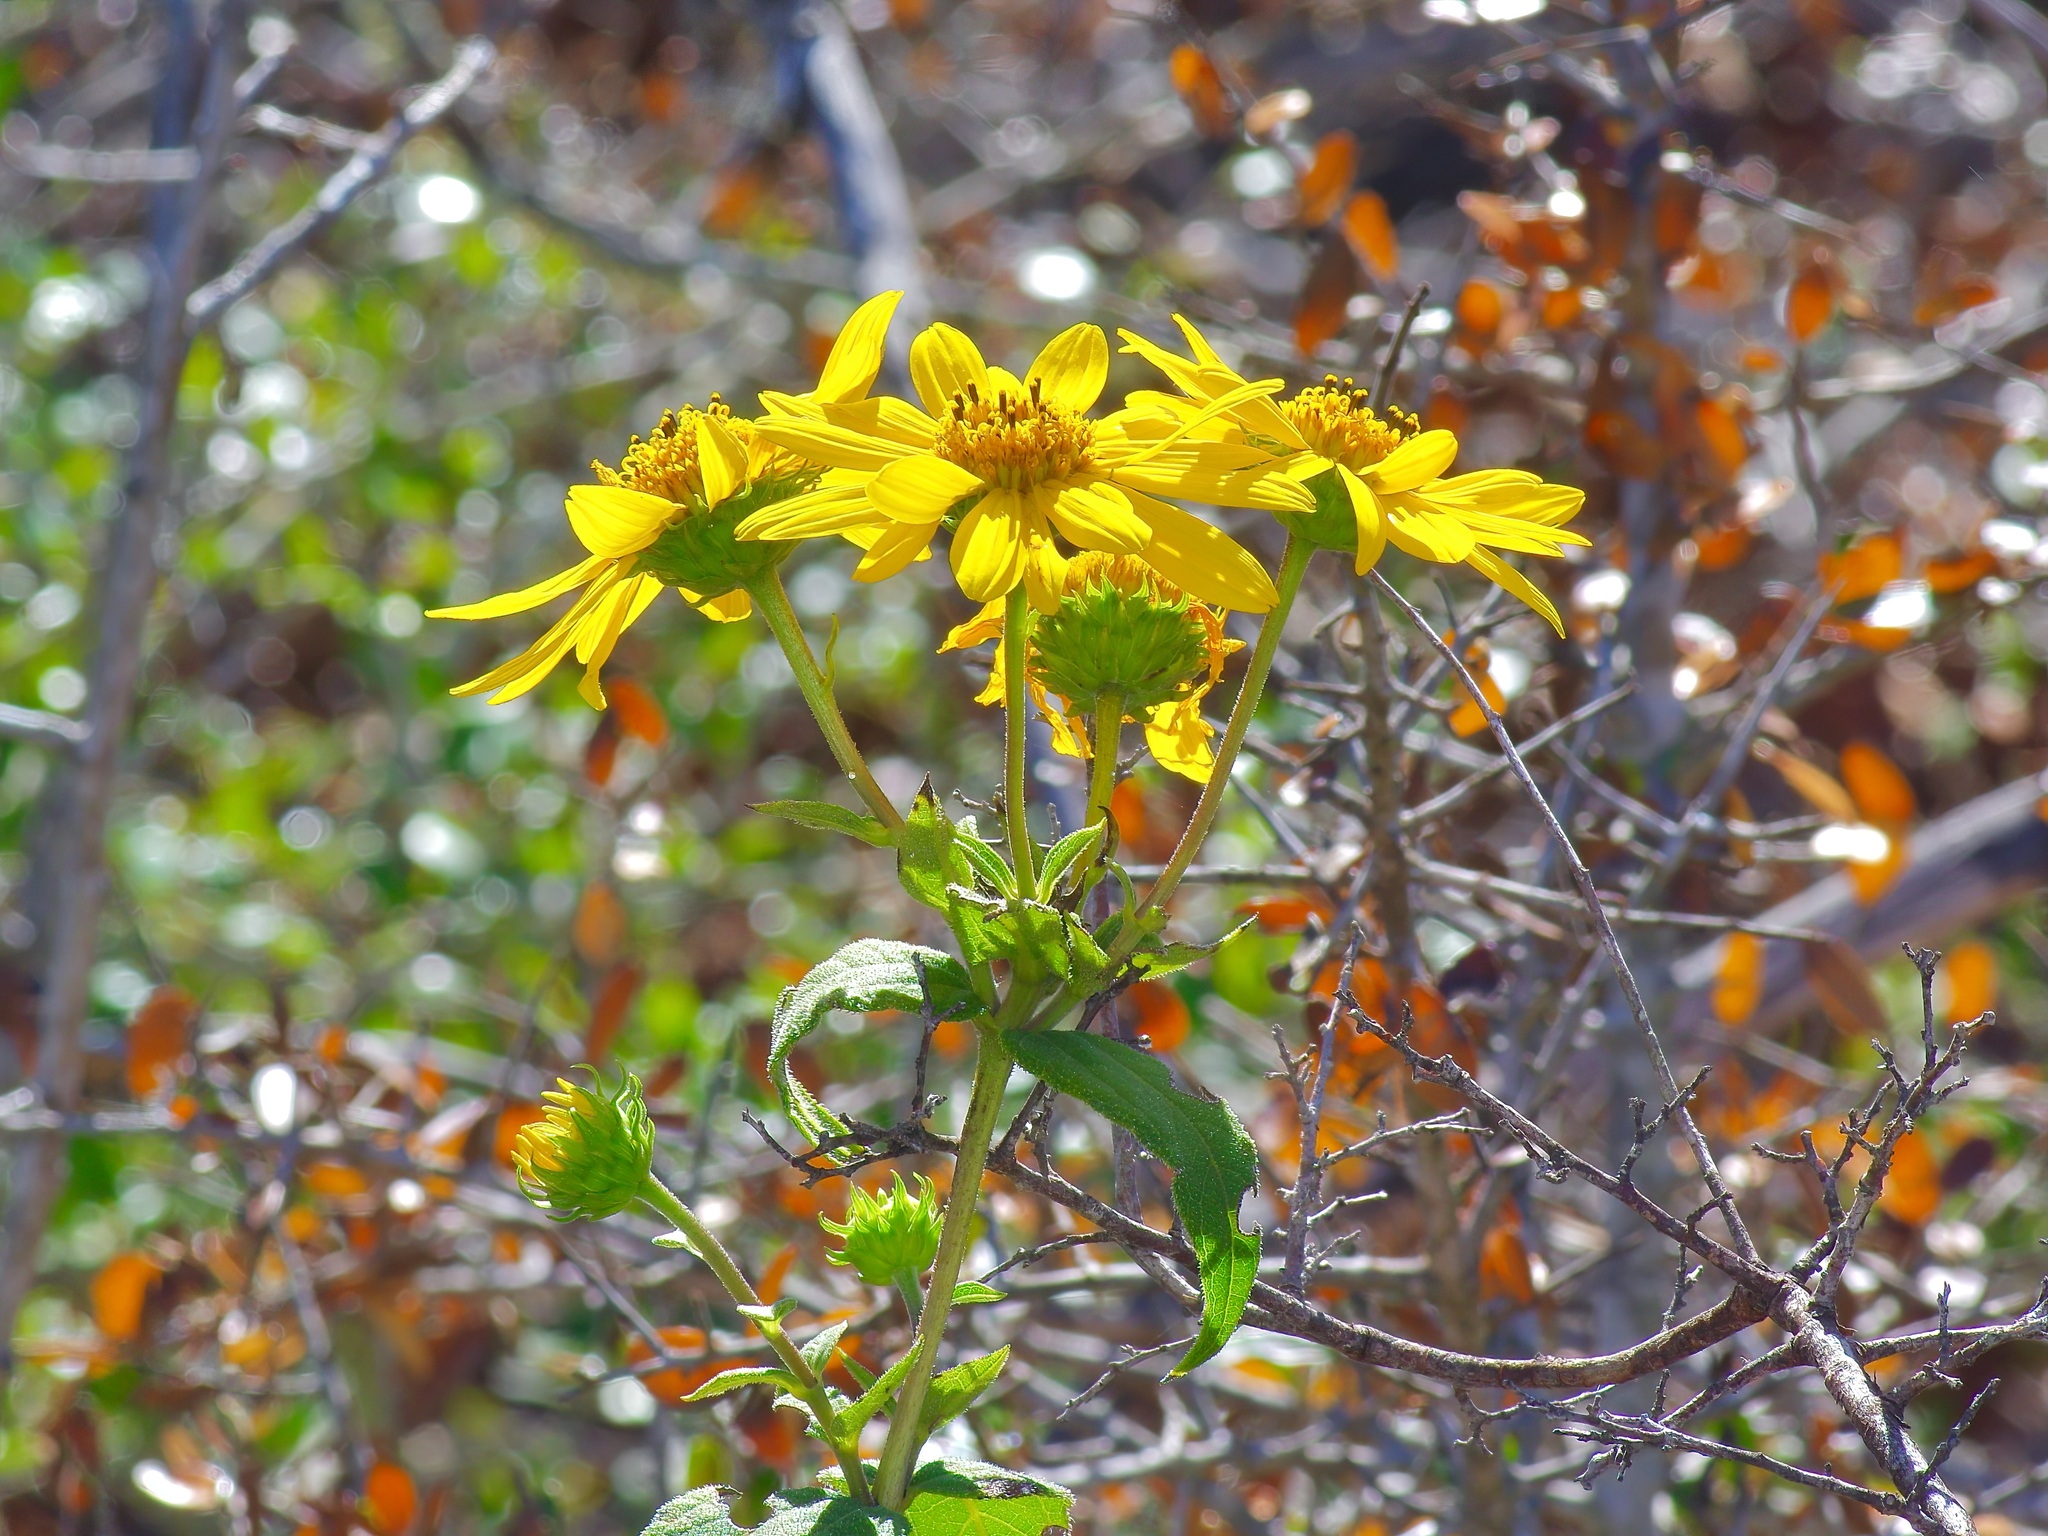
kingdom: Plantae
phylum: Tracheophyta
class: Magnoliopsida
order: Asterales
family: Asteraceae
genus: Helianthus
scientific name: Helianthus hirsutus
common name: Hairy sunflower
